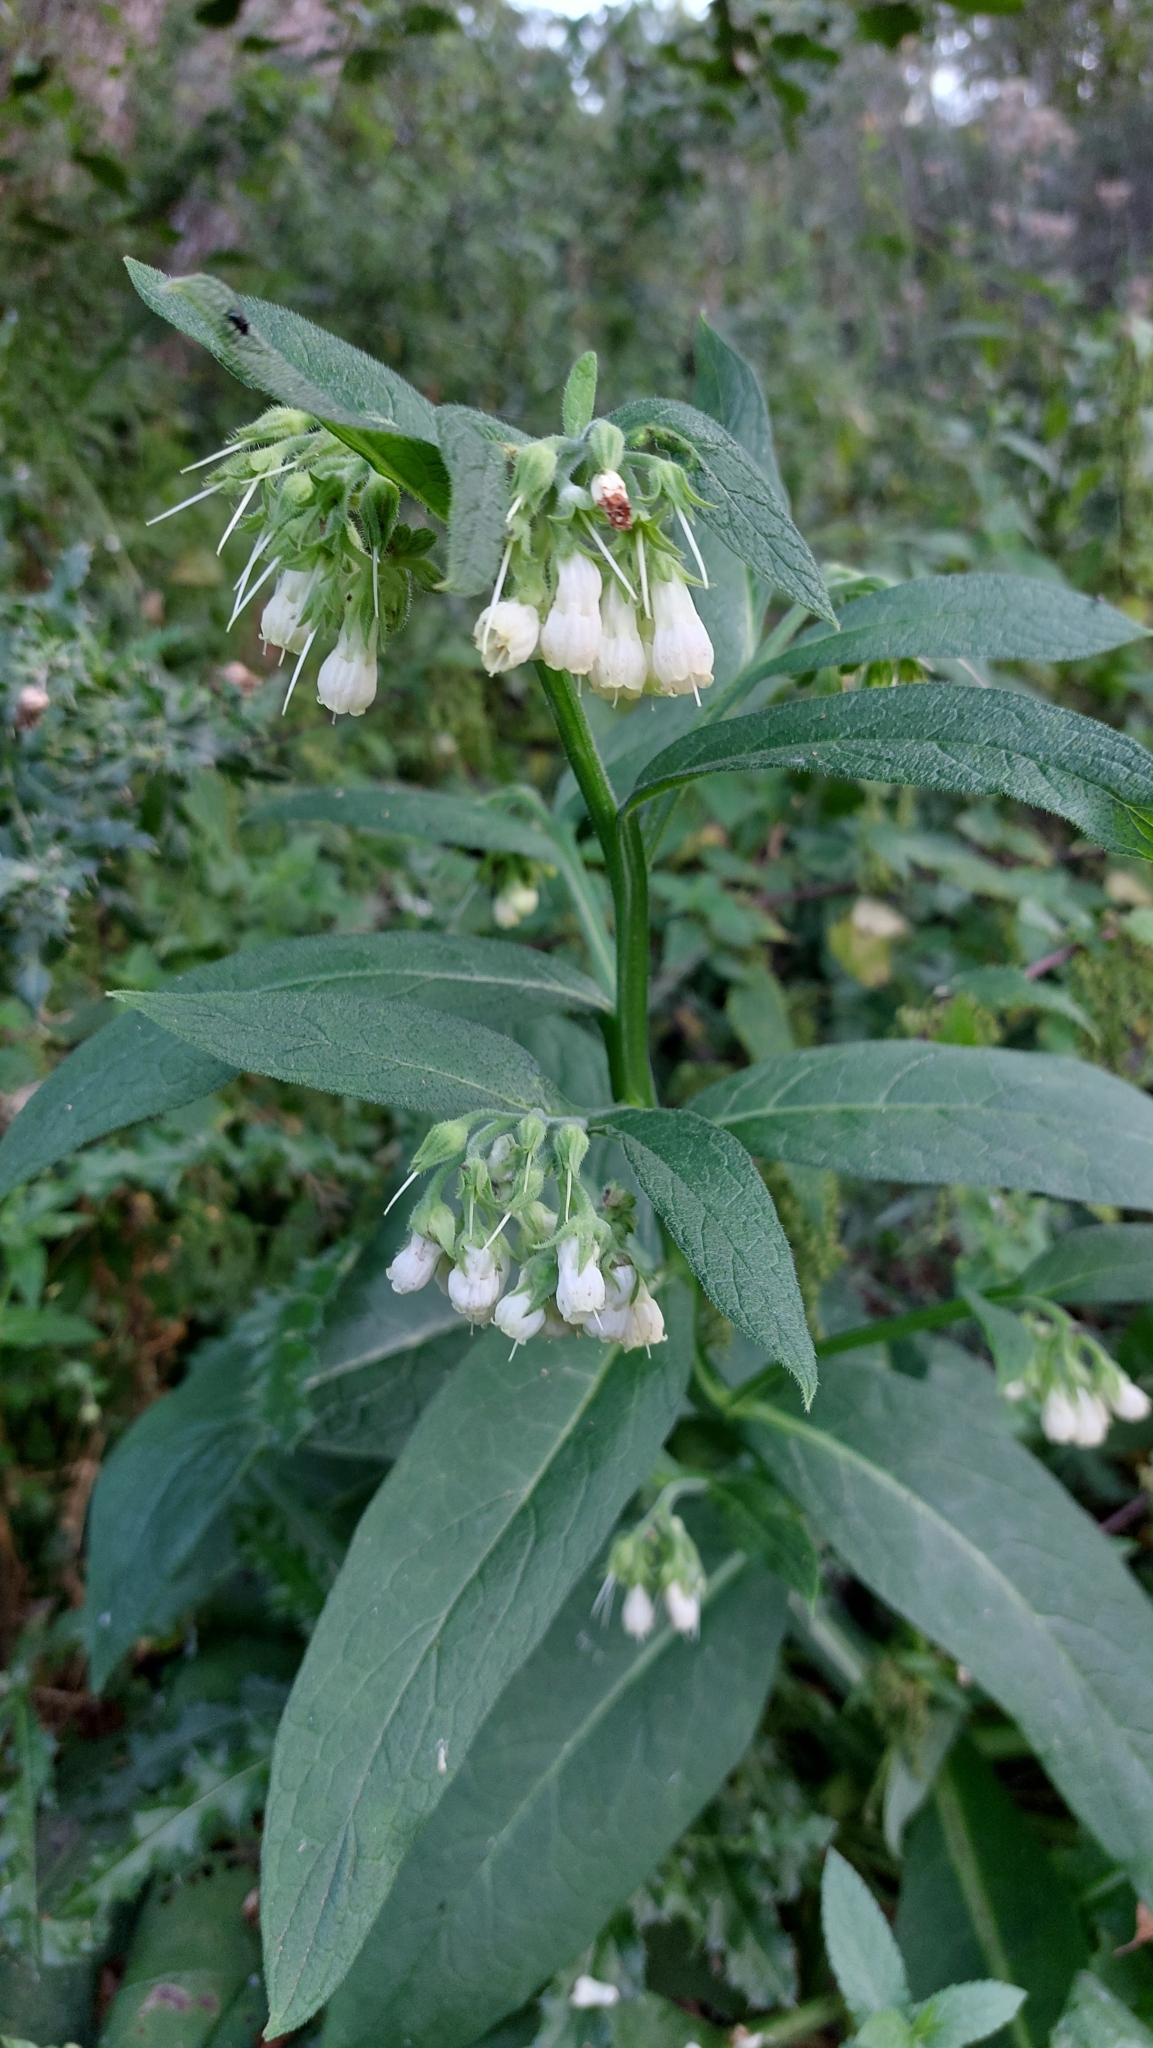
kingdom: Plantae
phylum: Tracheophyta
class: Magnoliopsida
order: Boraginales
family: Boraginaceae
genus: Symphytum
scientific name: Symphytum officinale
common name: Common comfrey
